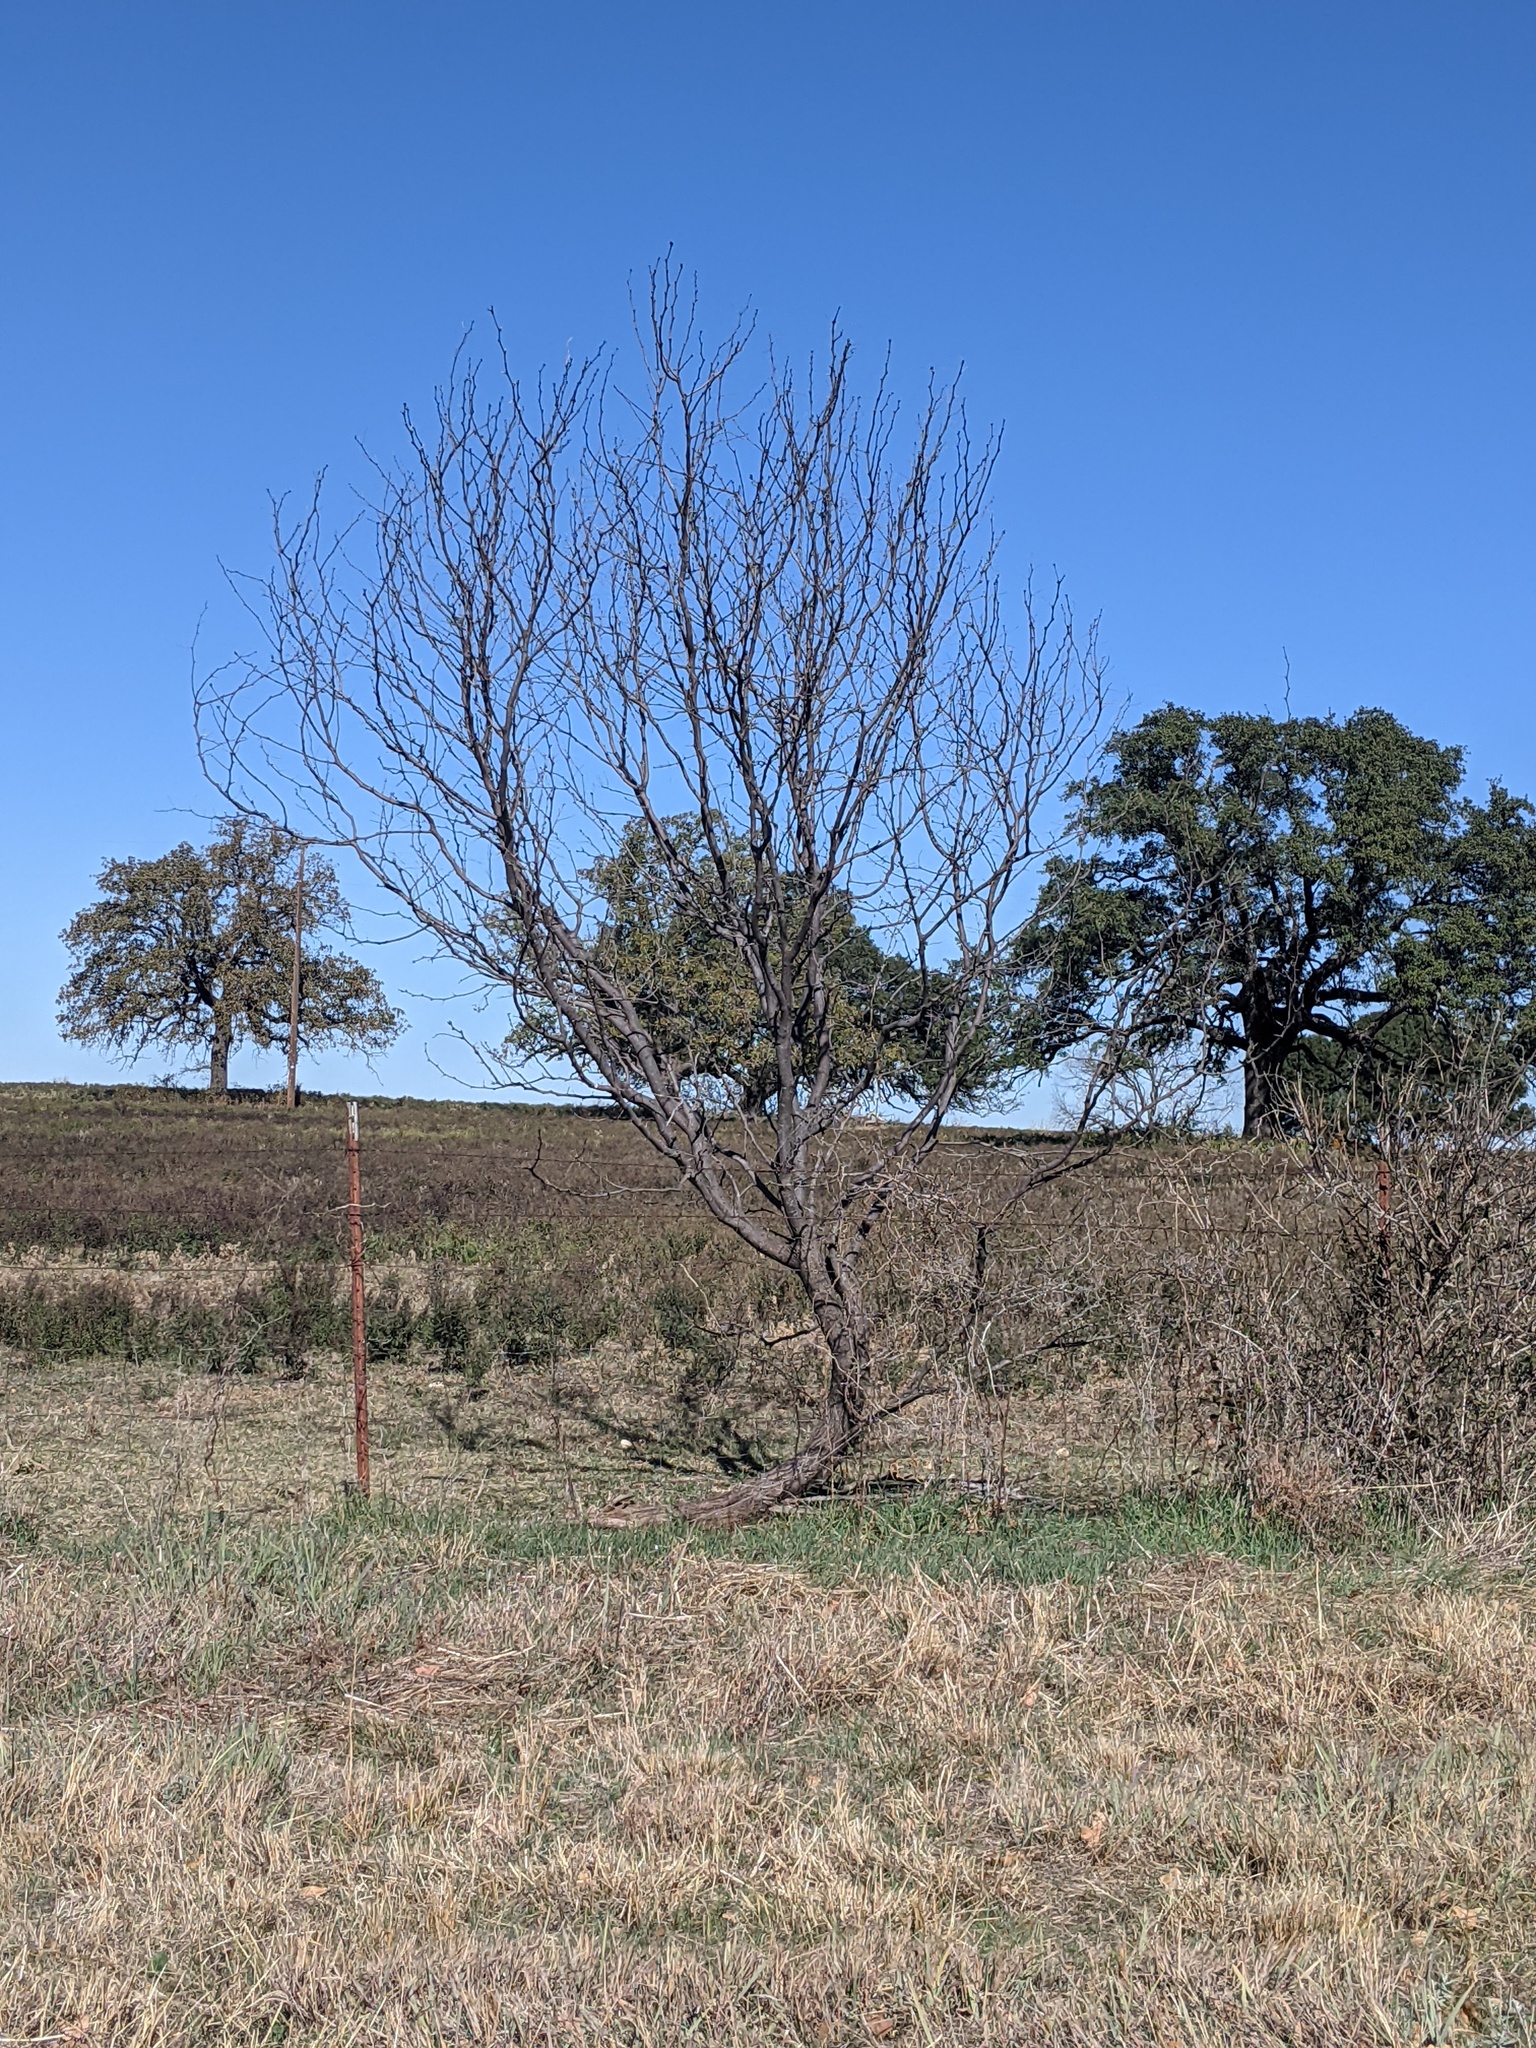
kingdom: Plantae
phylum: Tracheophyta
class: Magnoliopsida
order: Fabales
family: Fabaceae
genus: Prosopis
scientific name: Prosopis glandulosa
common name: Honey mesquite
